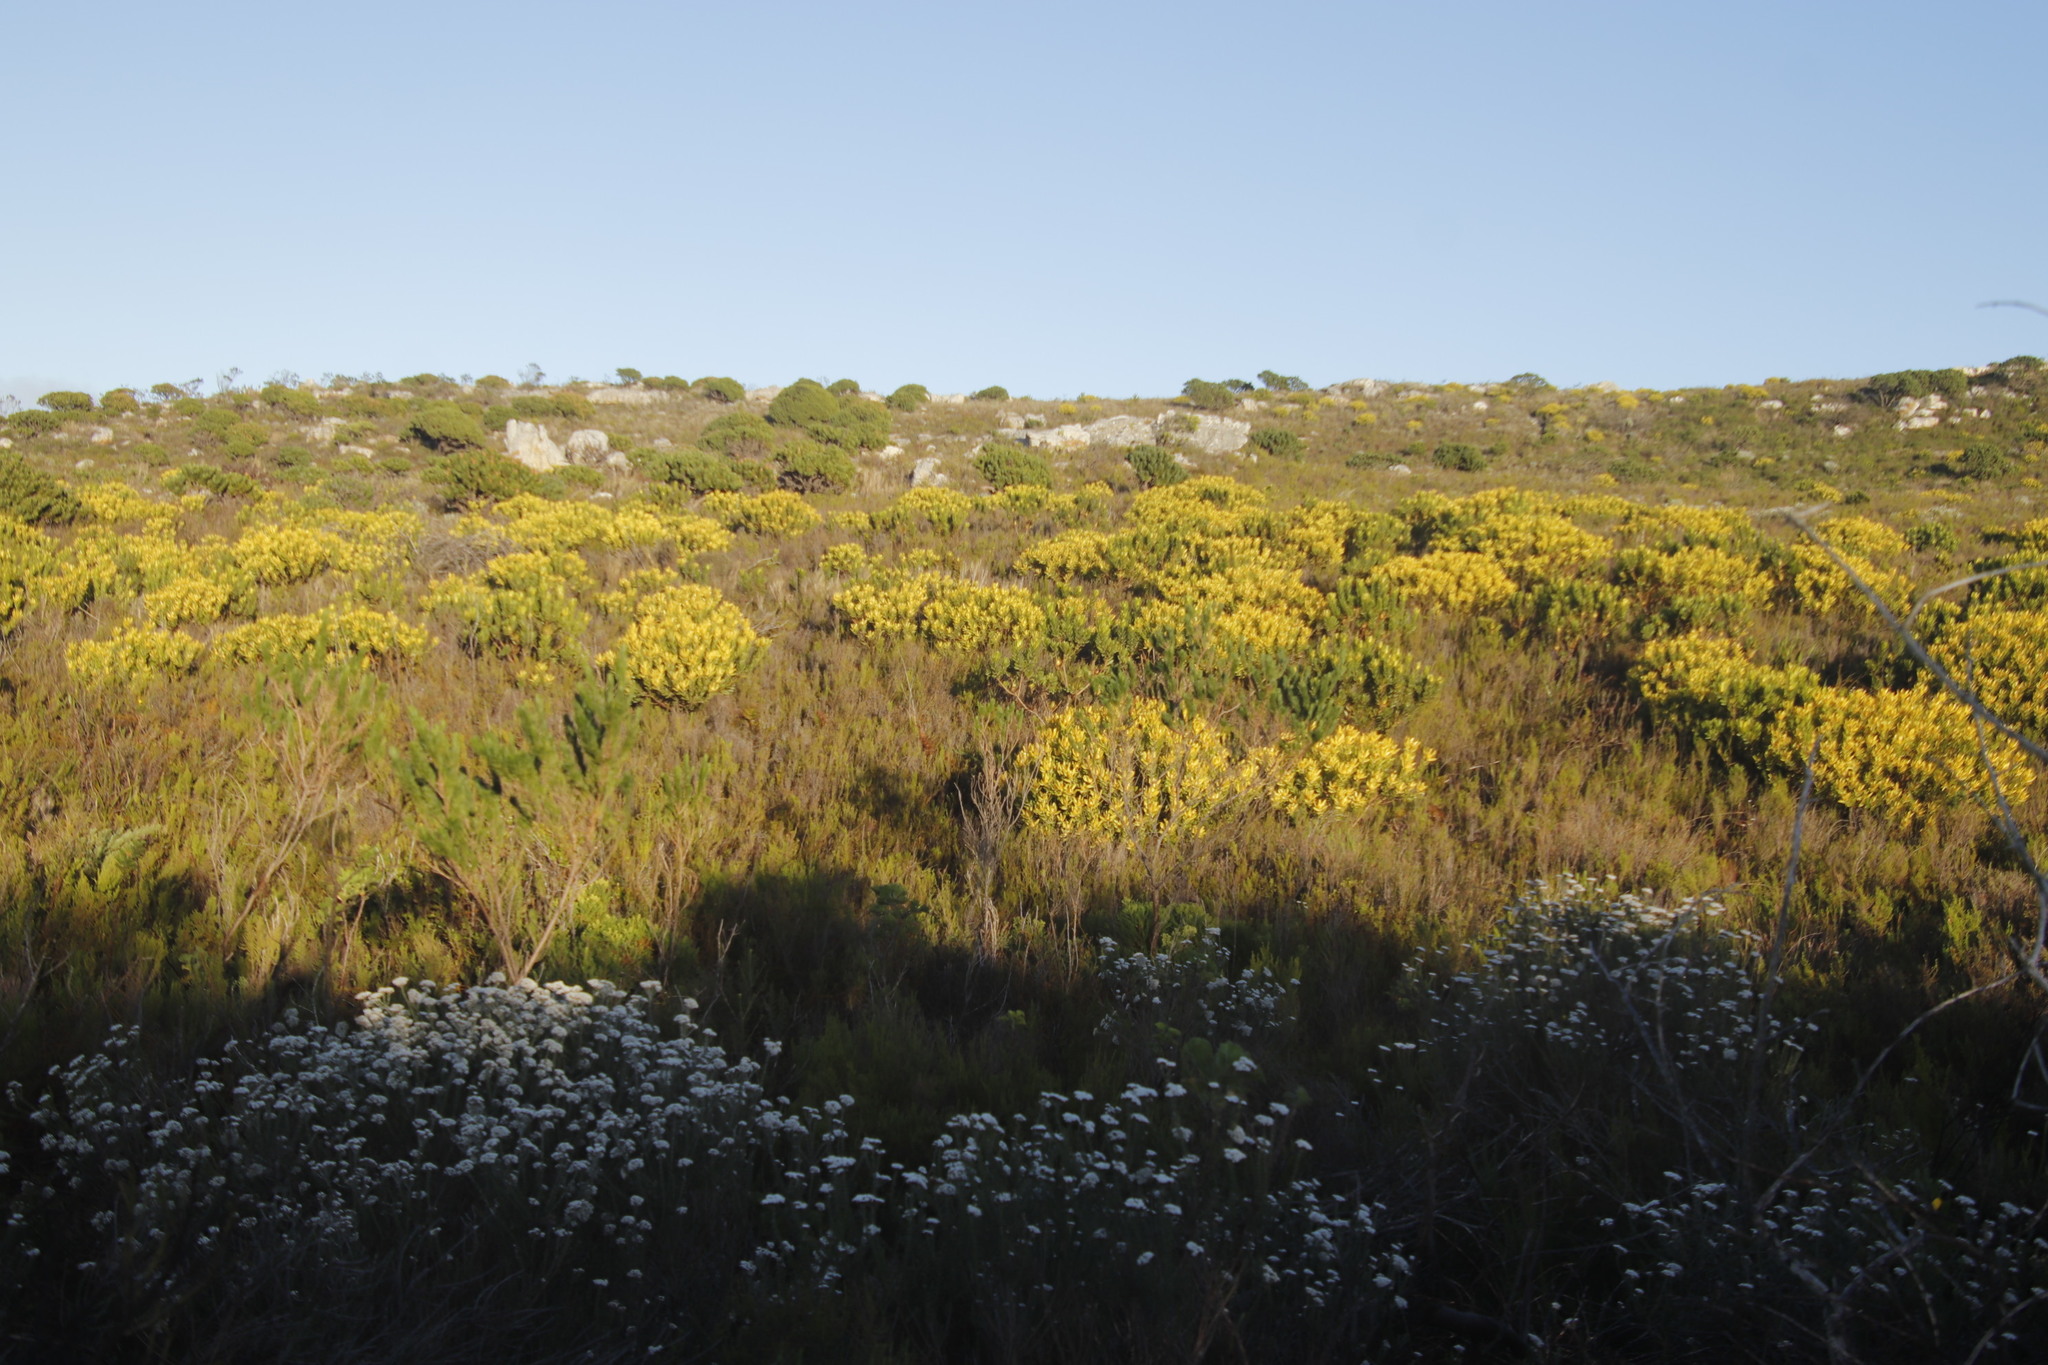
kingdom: Plantae
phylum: Tracheophyta
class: Magnoliopsida
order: Proteales
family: Proteaceae
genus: Leucadendron
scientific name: Leucadendron laureolum
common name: Golden sunshinebush
